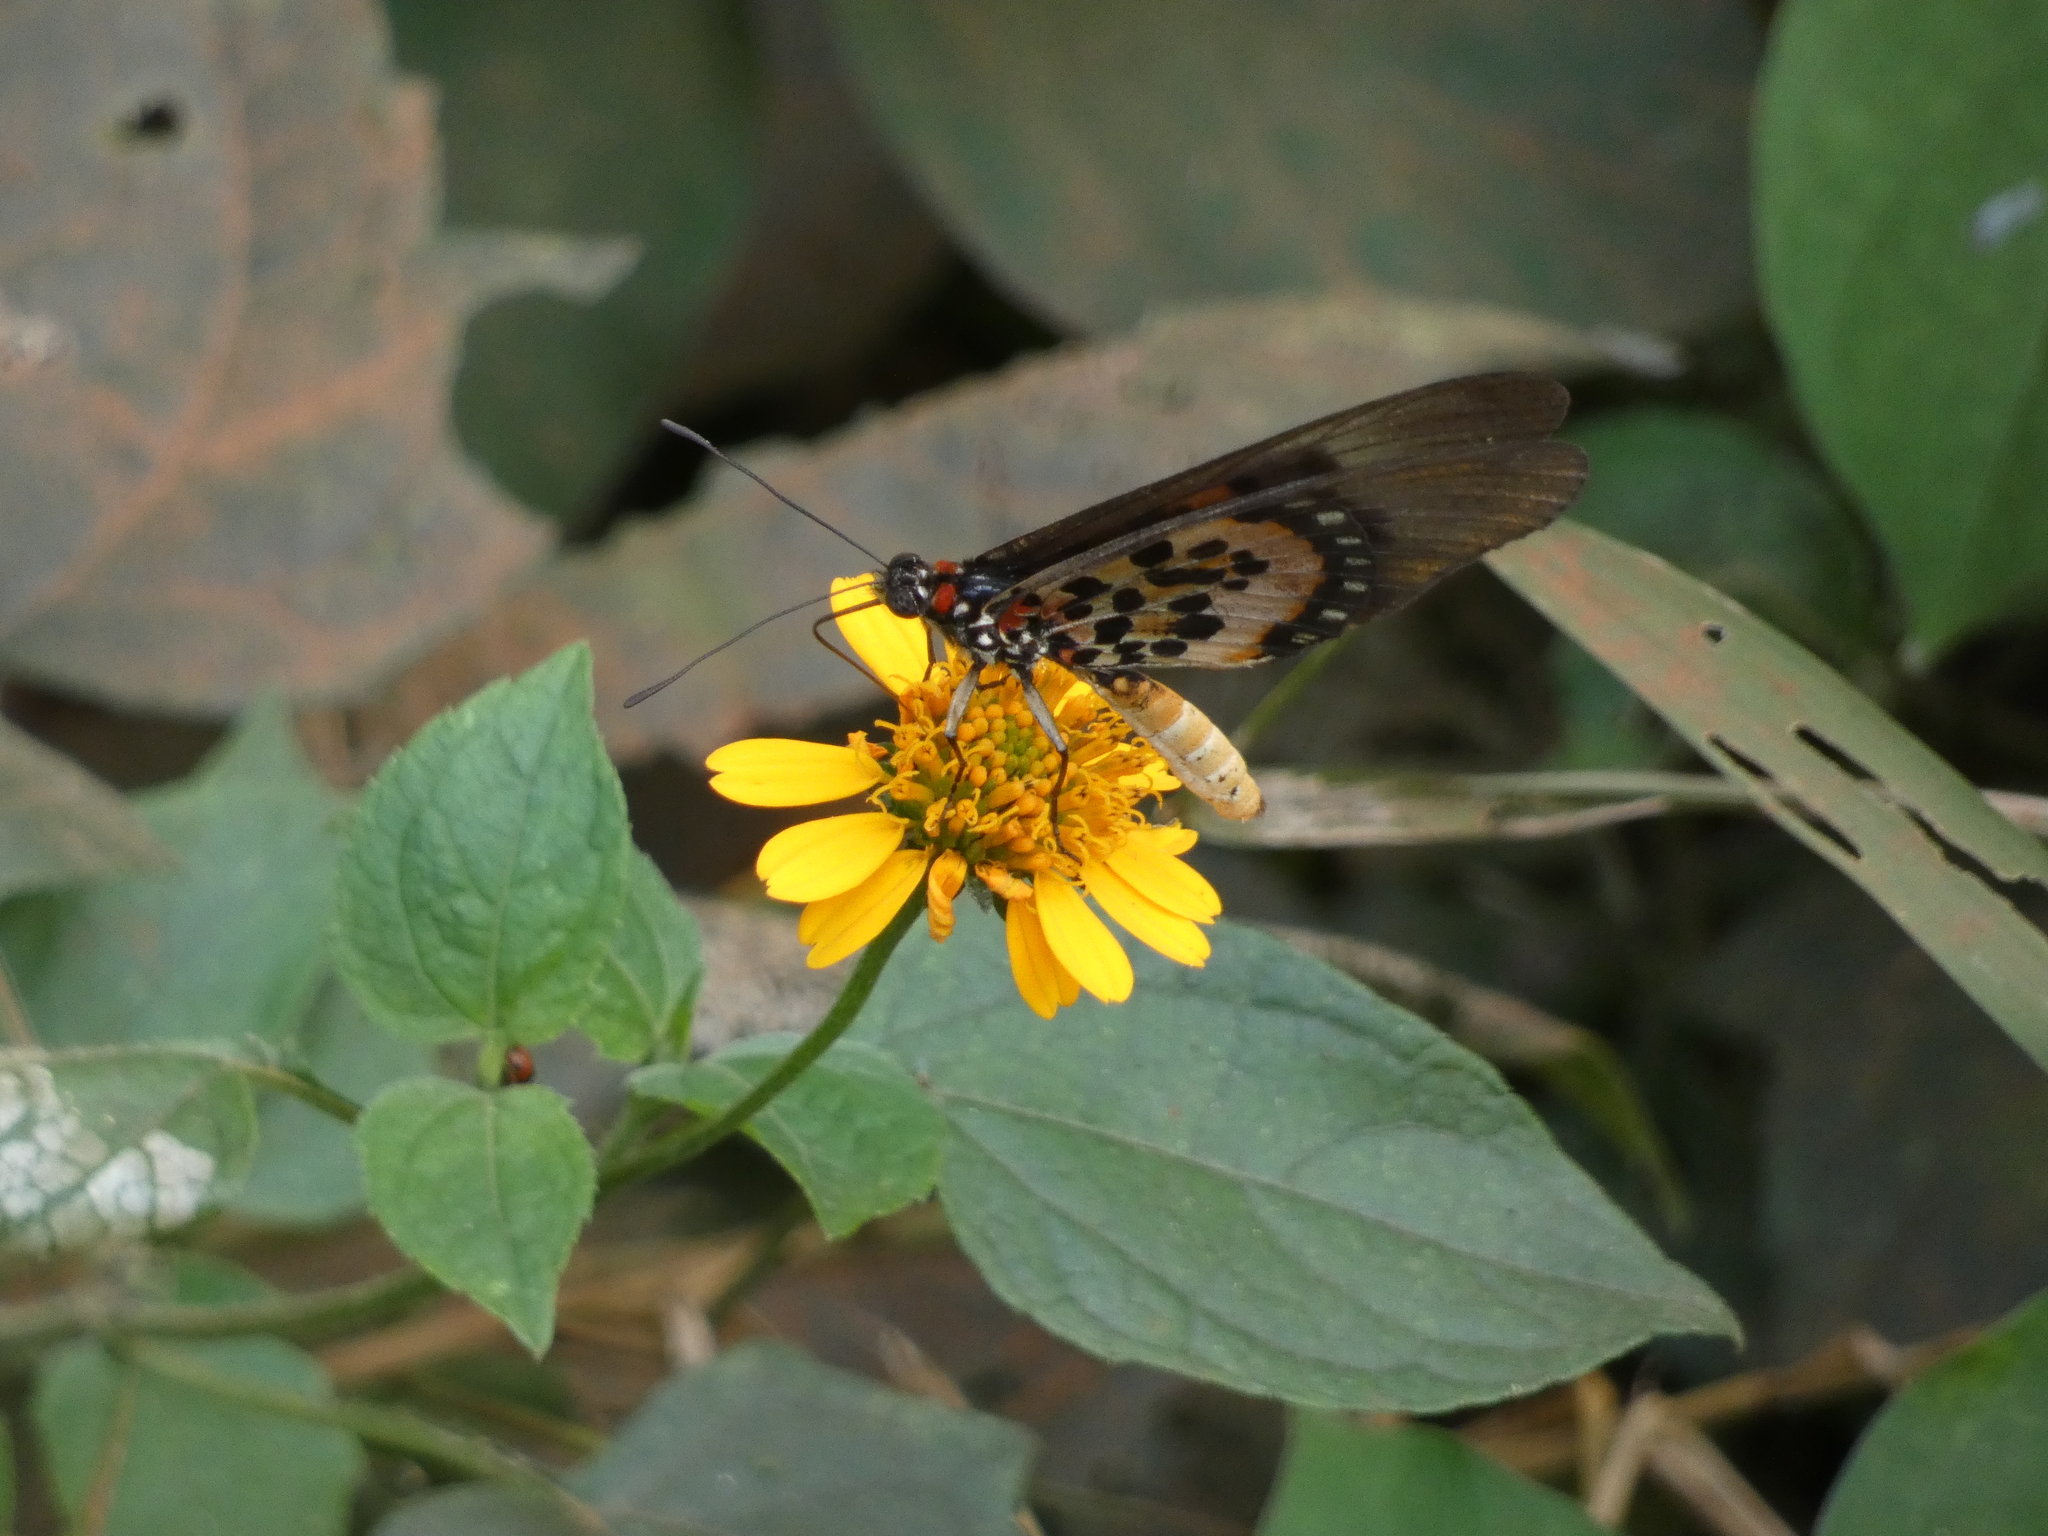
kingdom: Animalia
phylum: Arthropoda
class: Insecta
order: Lepidoptera
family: Nymphalidae
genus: Rubraea
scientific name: Rubraea
